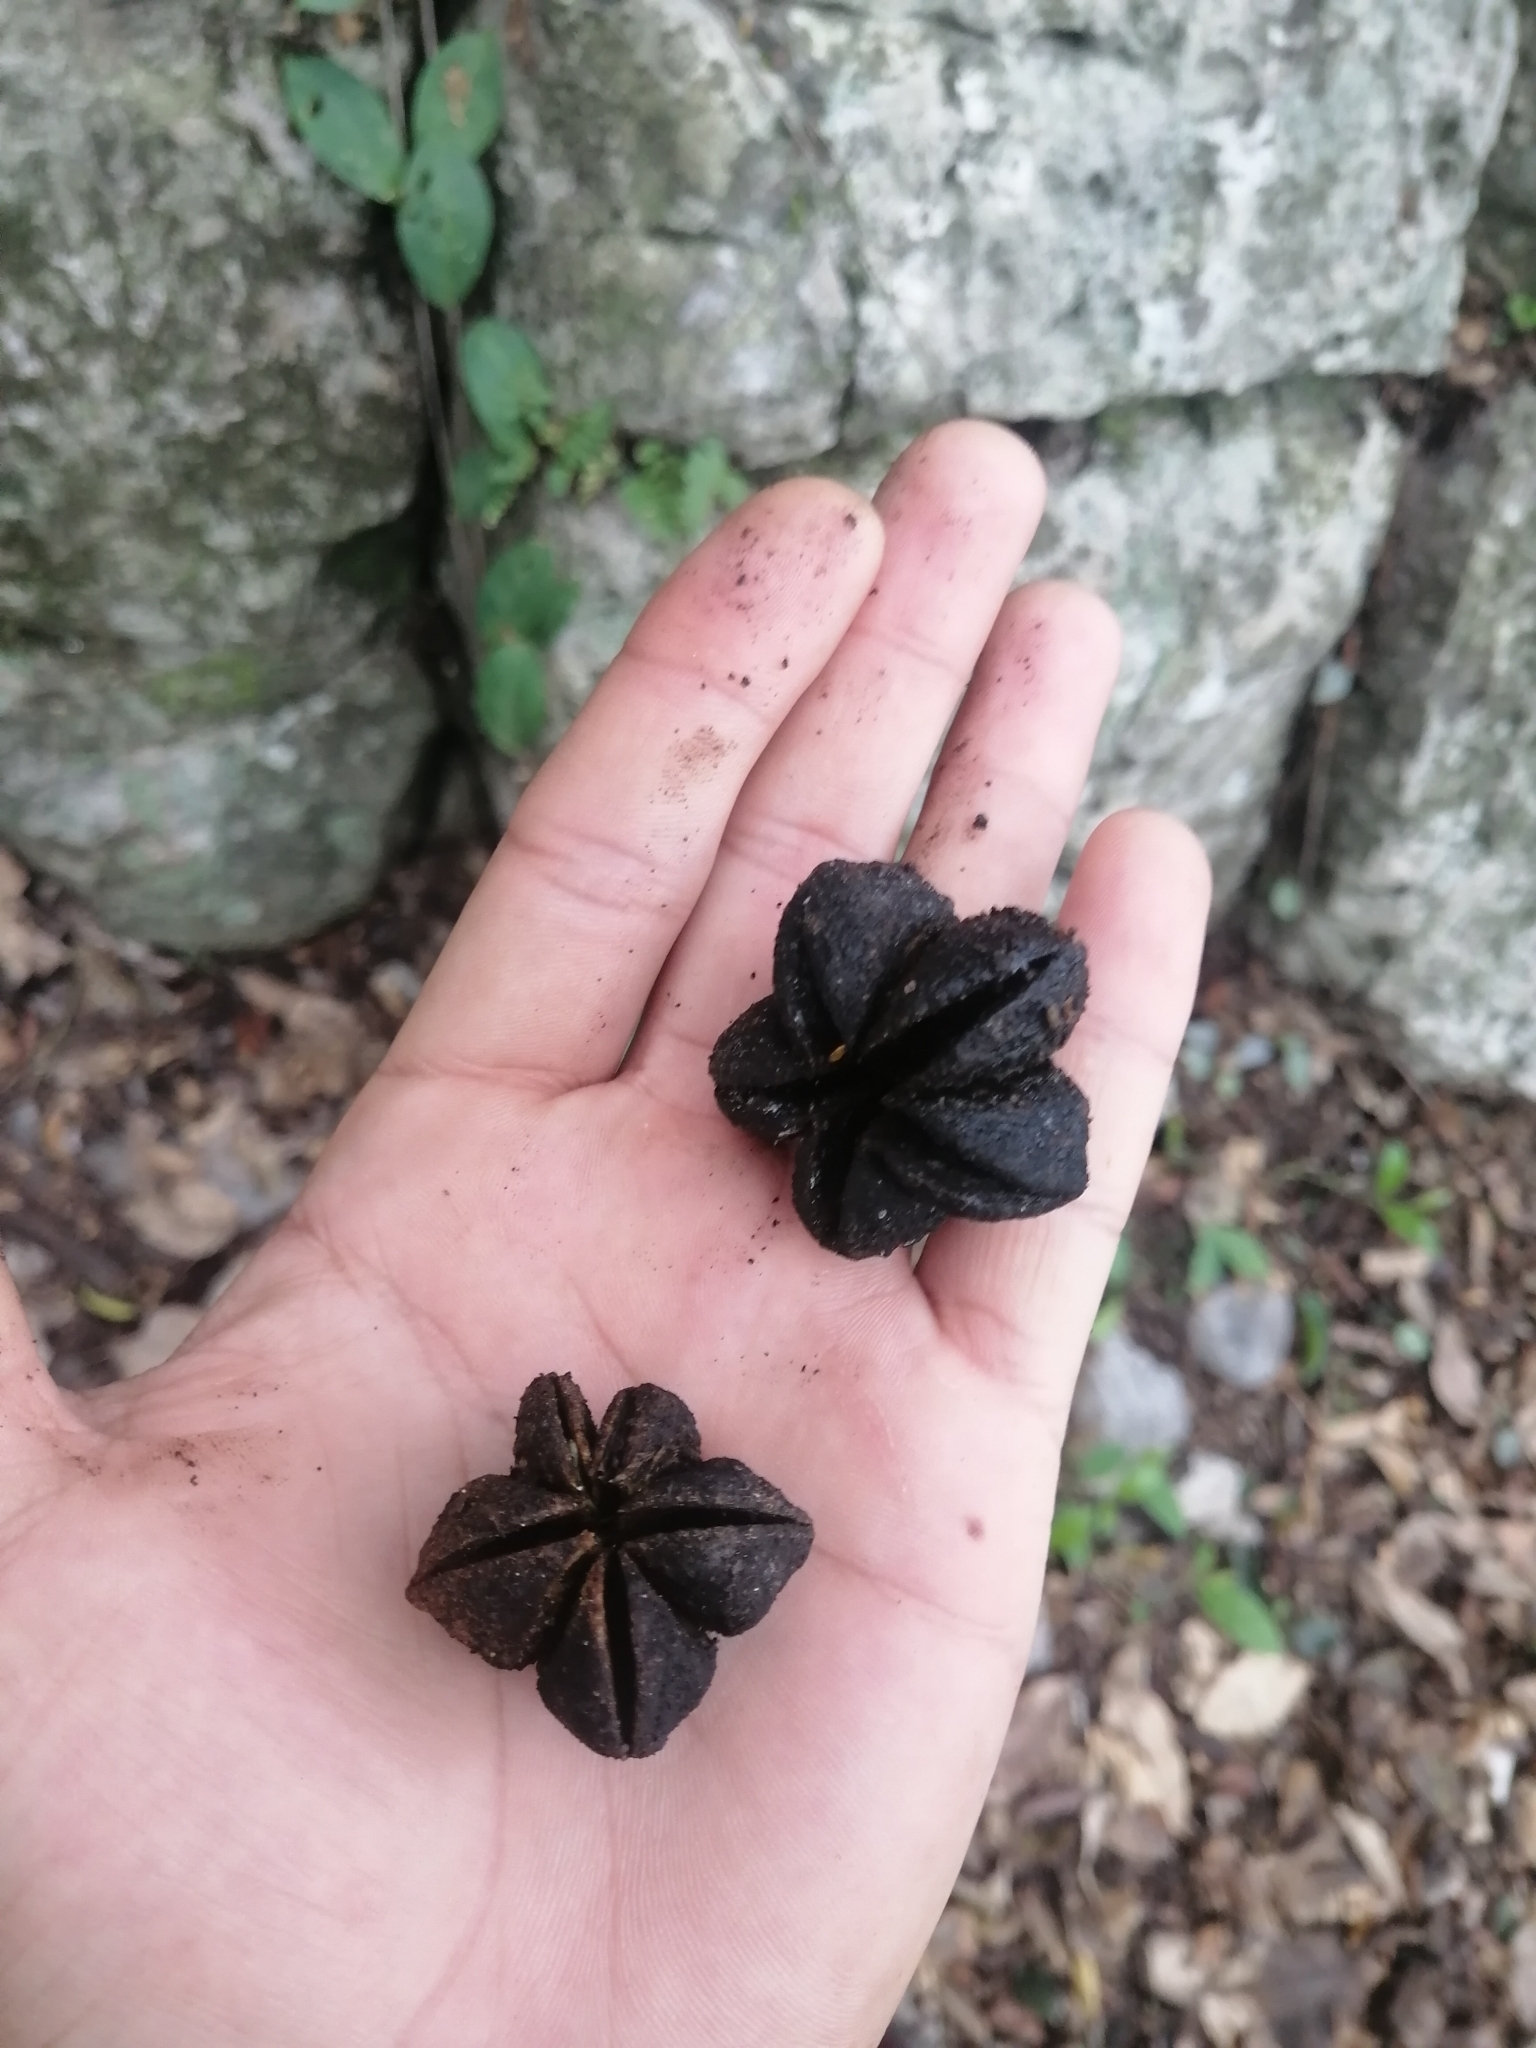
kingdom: Plantae
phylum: Tracheophyta
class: Magnoliopsida
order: Sapindales
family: Rutaceae
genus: Esenbeckia
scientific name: Esenbeckia berlandieri
